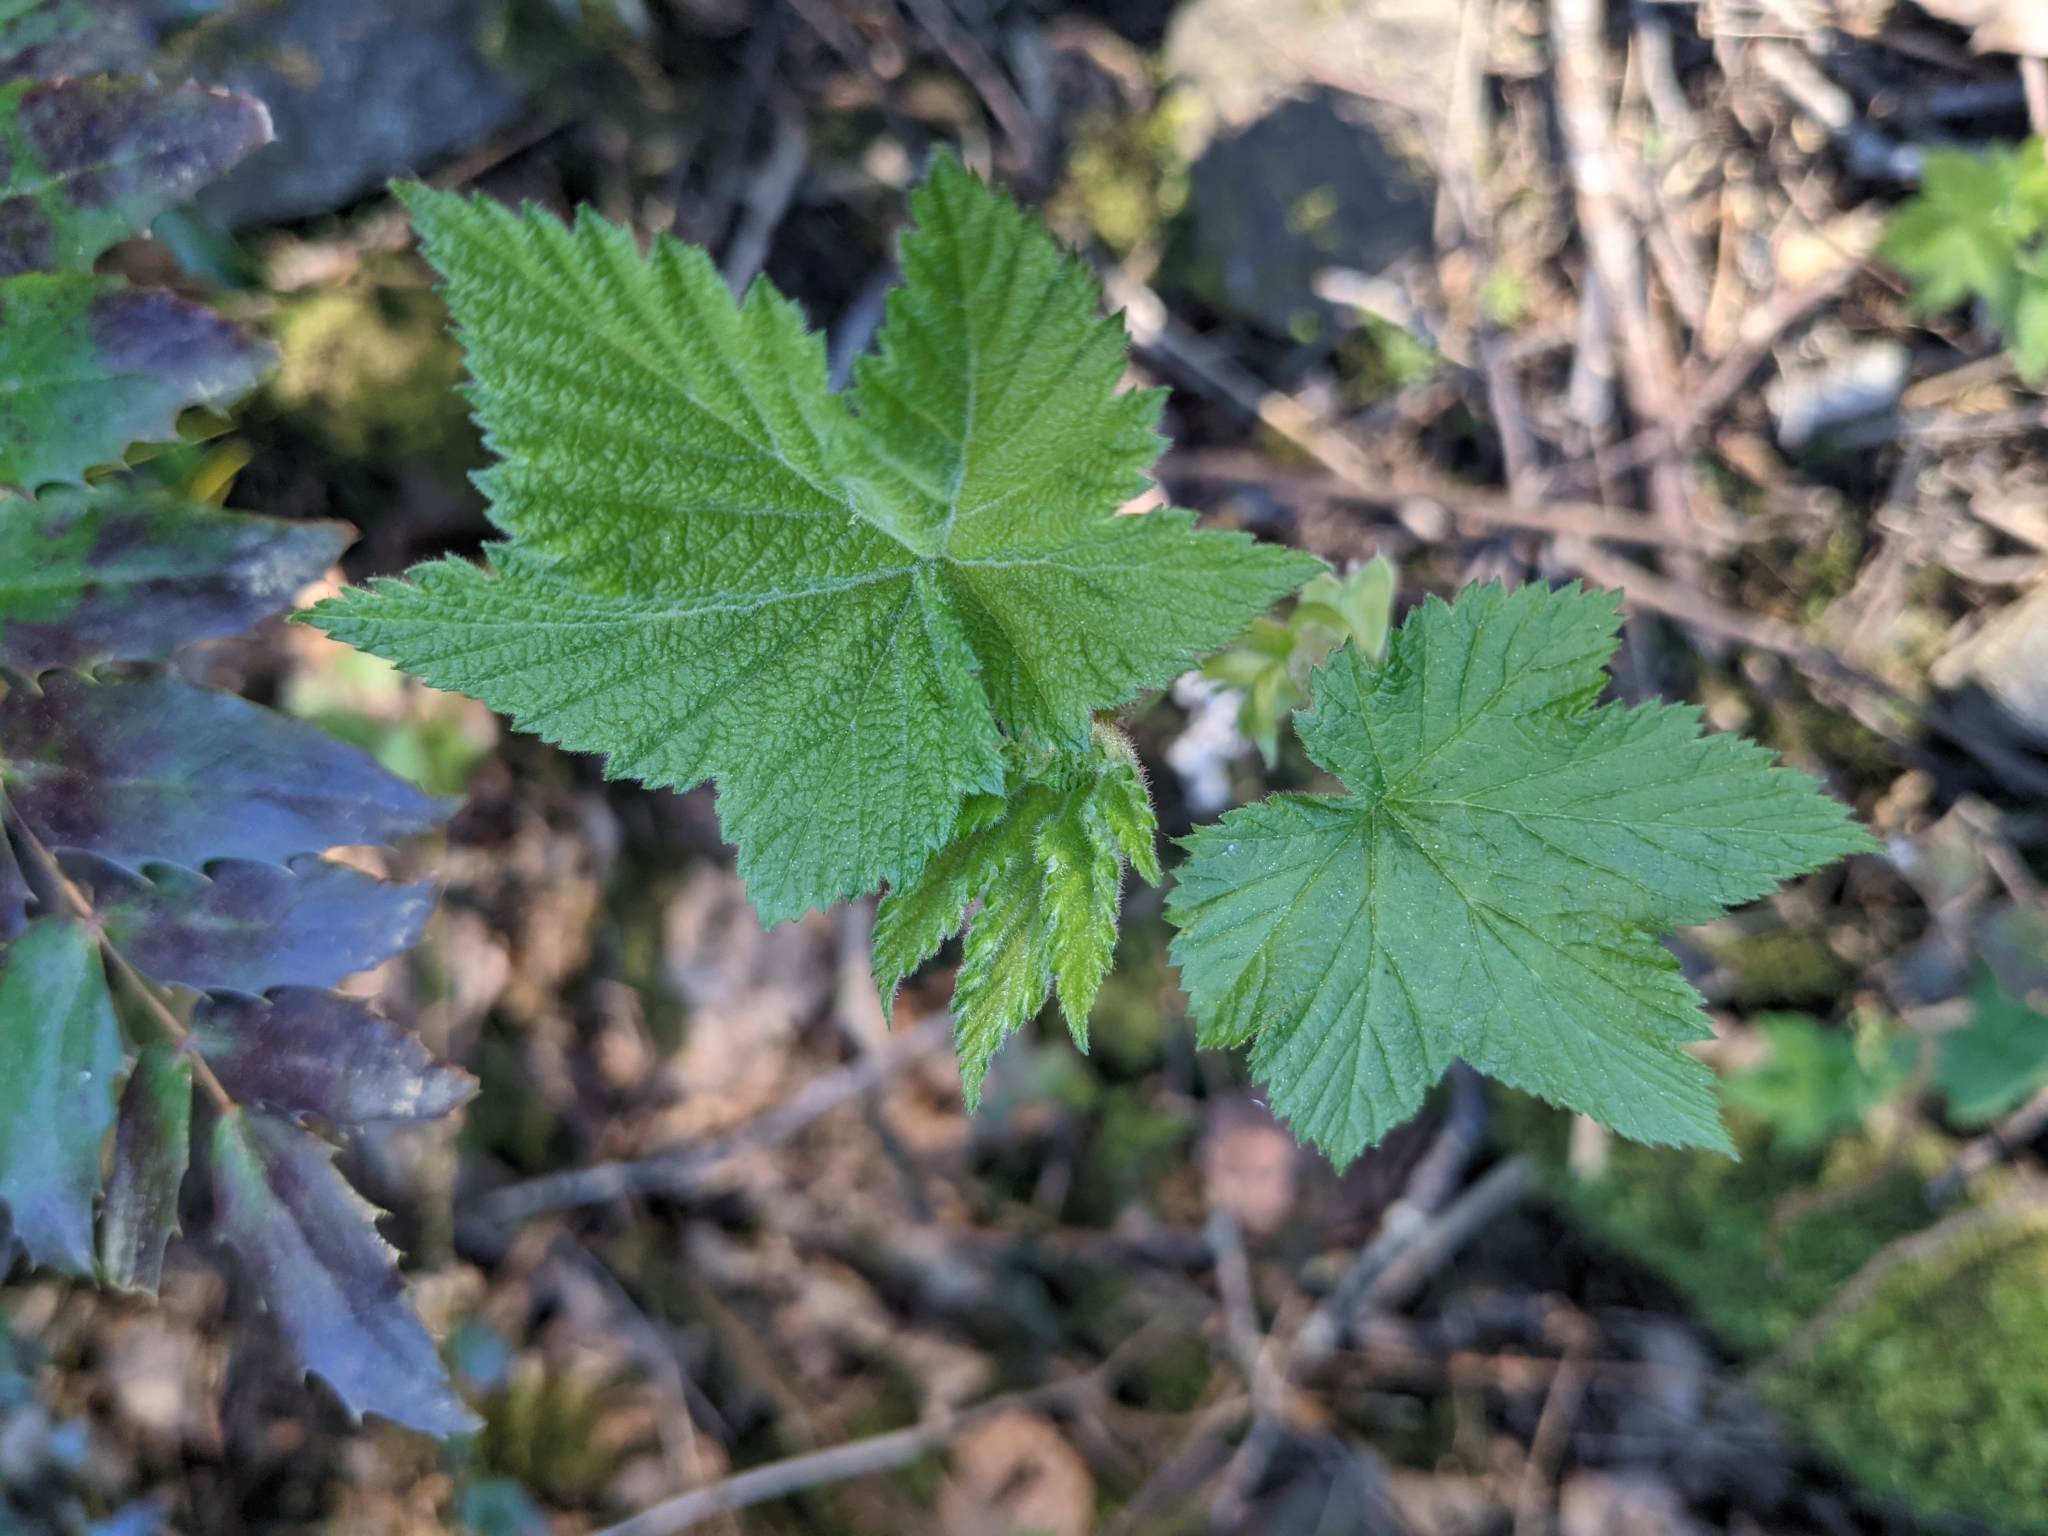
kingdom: Plantae
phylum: Tracheophyta
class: Magnoliopsida
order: Rosales
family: Rosaceae
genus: Rubus
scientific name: Rubus parviflorus
